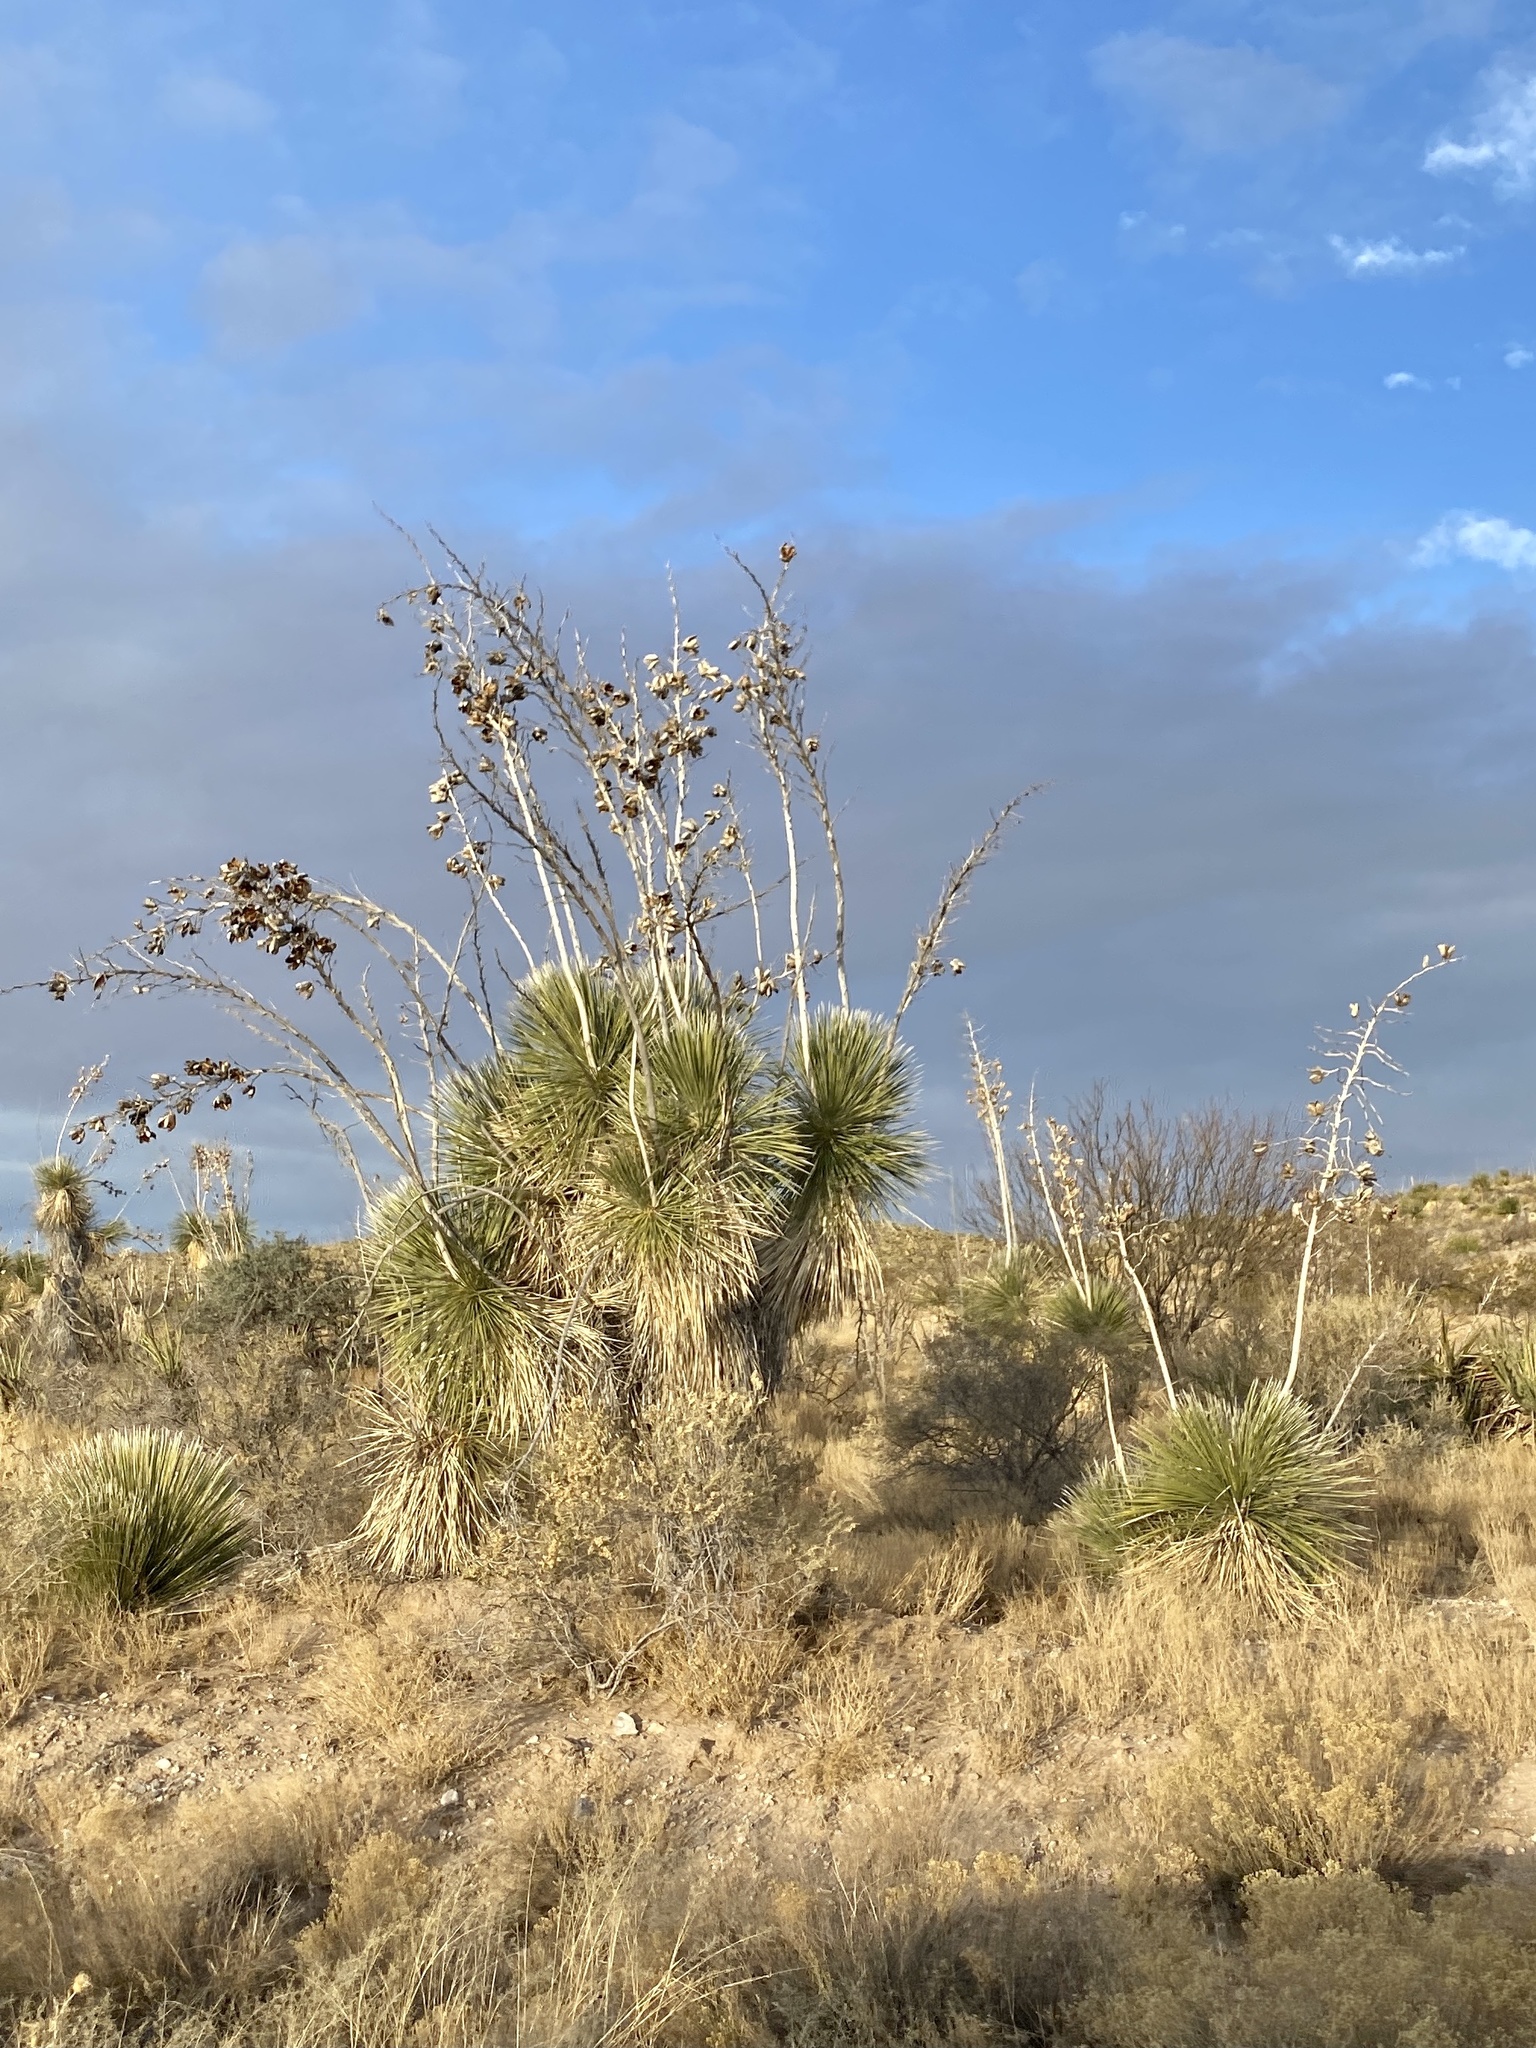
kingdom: Plantae
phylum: Tracheophyta
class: Liliopsida
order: Asparagales
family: Asparagaceae
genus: Yucca
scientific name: Yucca elata
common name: Palmella
